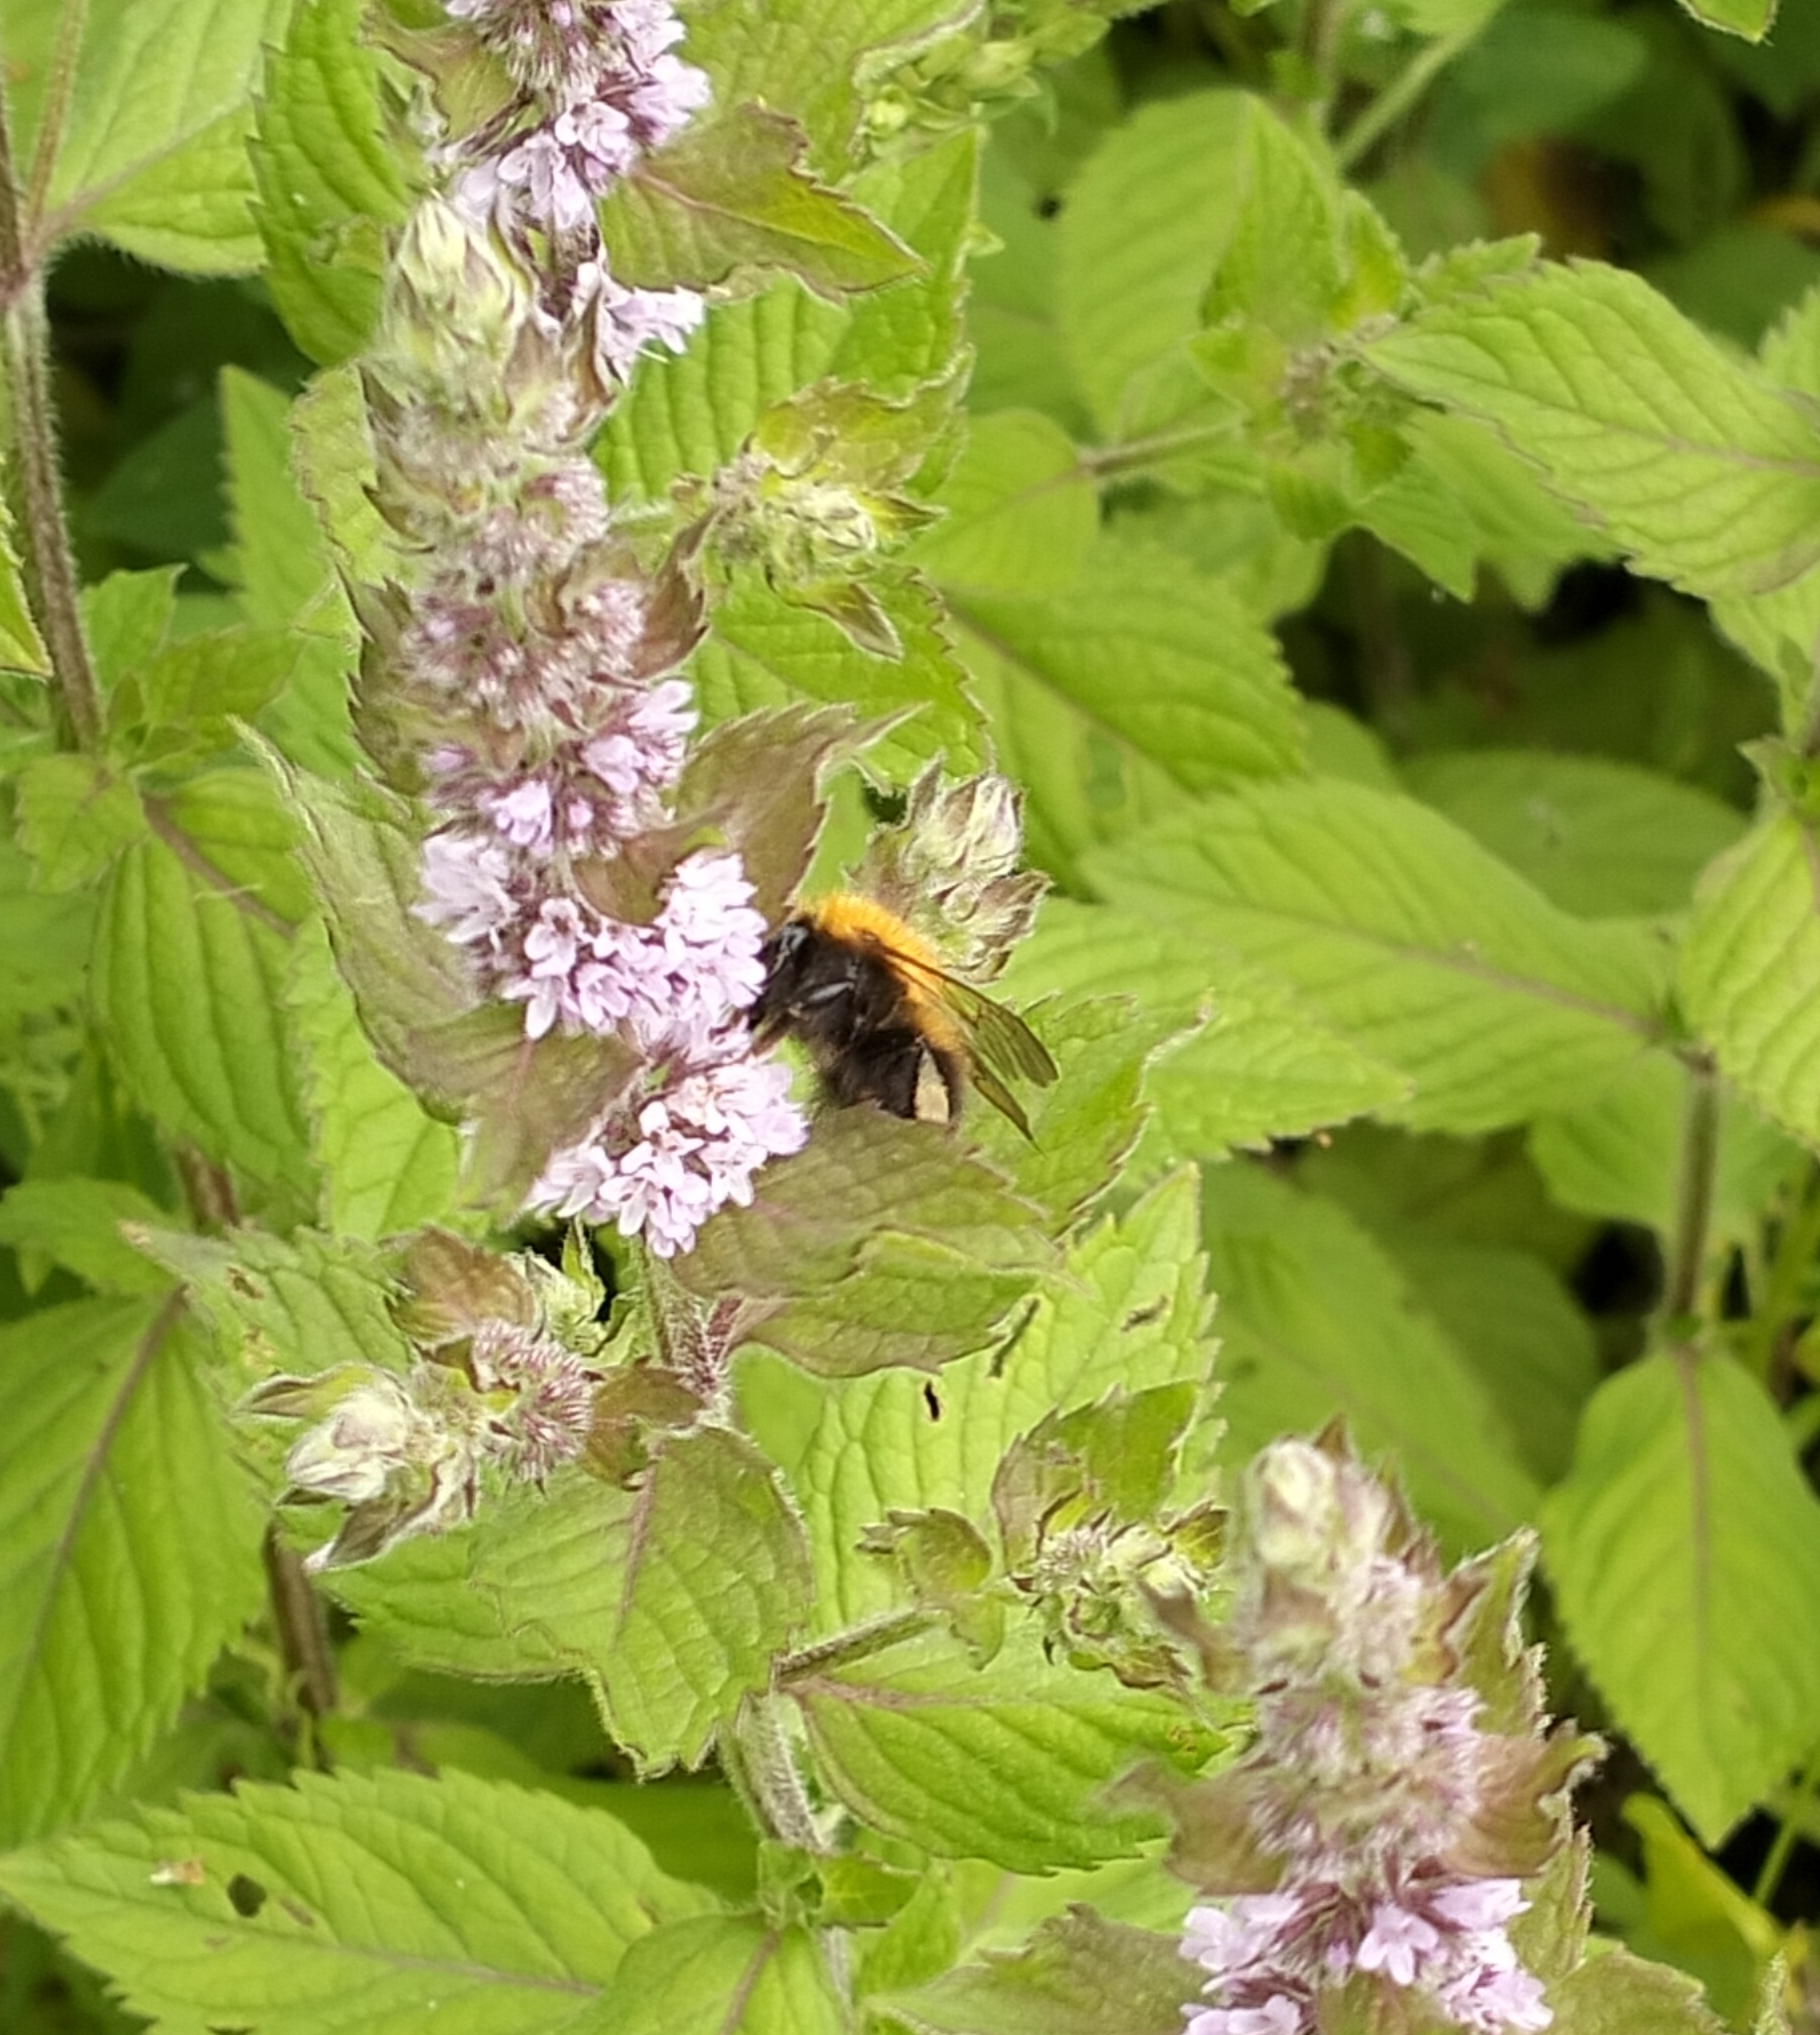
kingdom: Animalia
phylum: Arthropoda
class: Insecta
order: Hymenoptera
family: Apidae
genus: Bombus
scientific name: Bombus hypnorum
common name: New garden bumblebee
